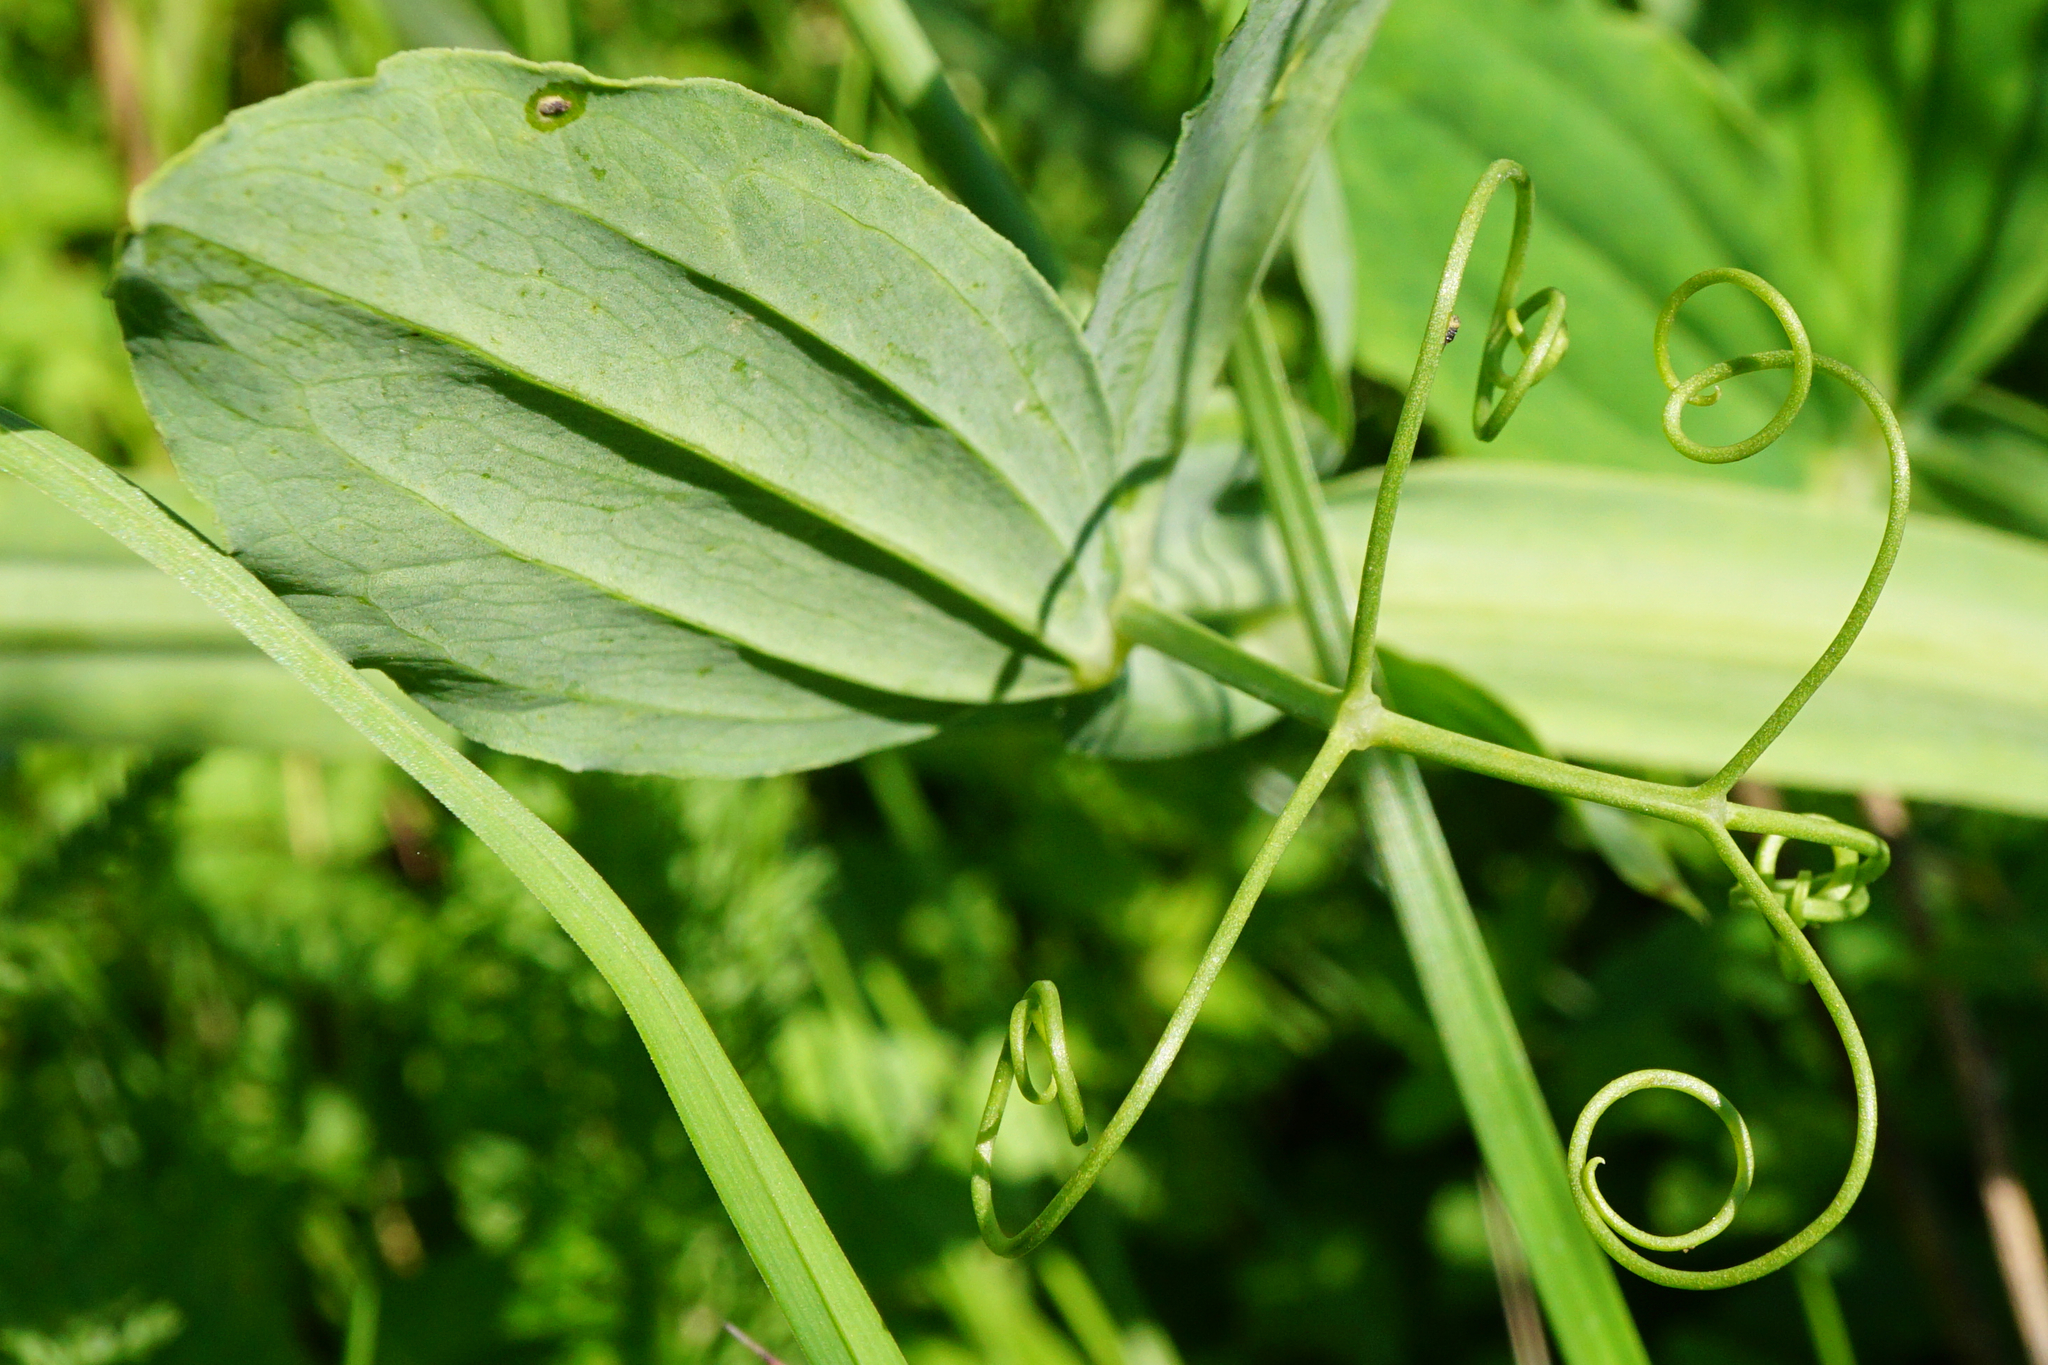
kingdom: Plantae
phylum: Tracheophyta
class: Magnoliopsida
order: Fabales
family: Fabaceae
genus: Lathyrus
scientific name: Lathyrus latifolius
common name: Perennial pea
